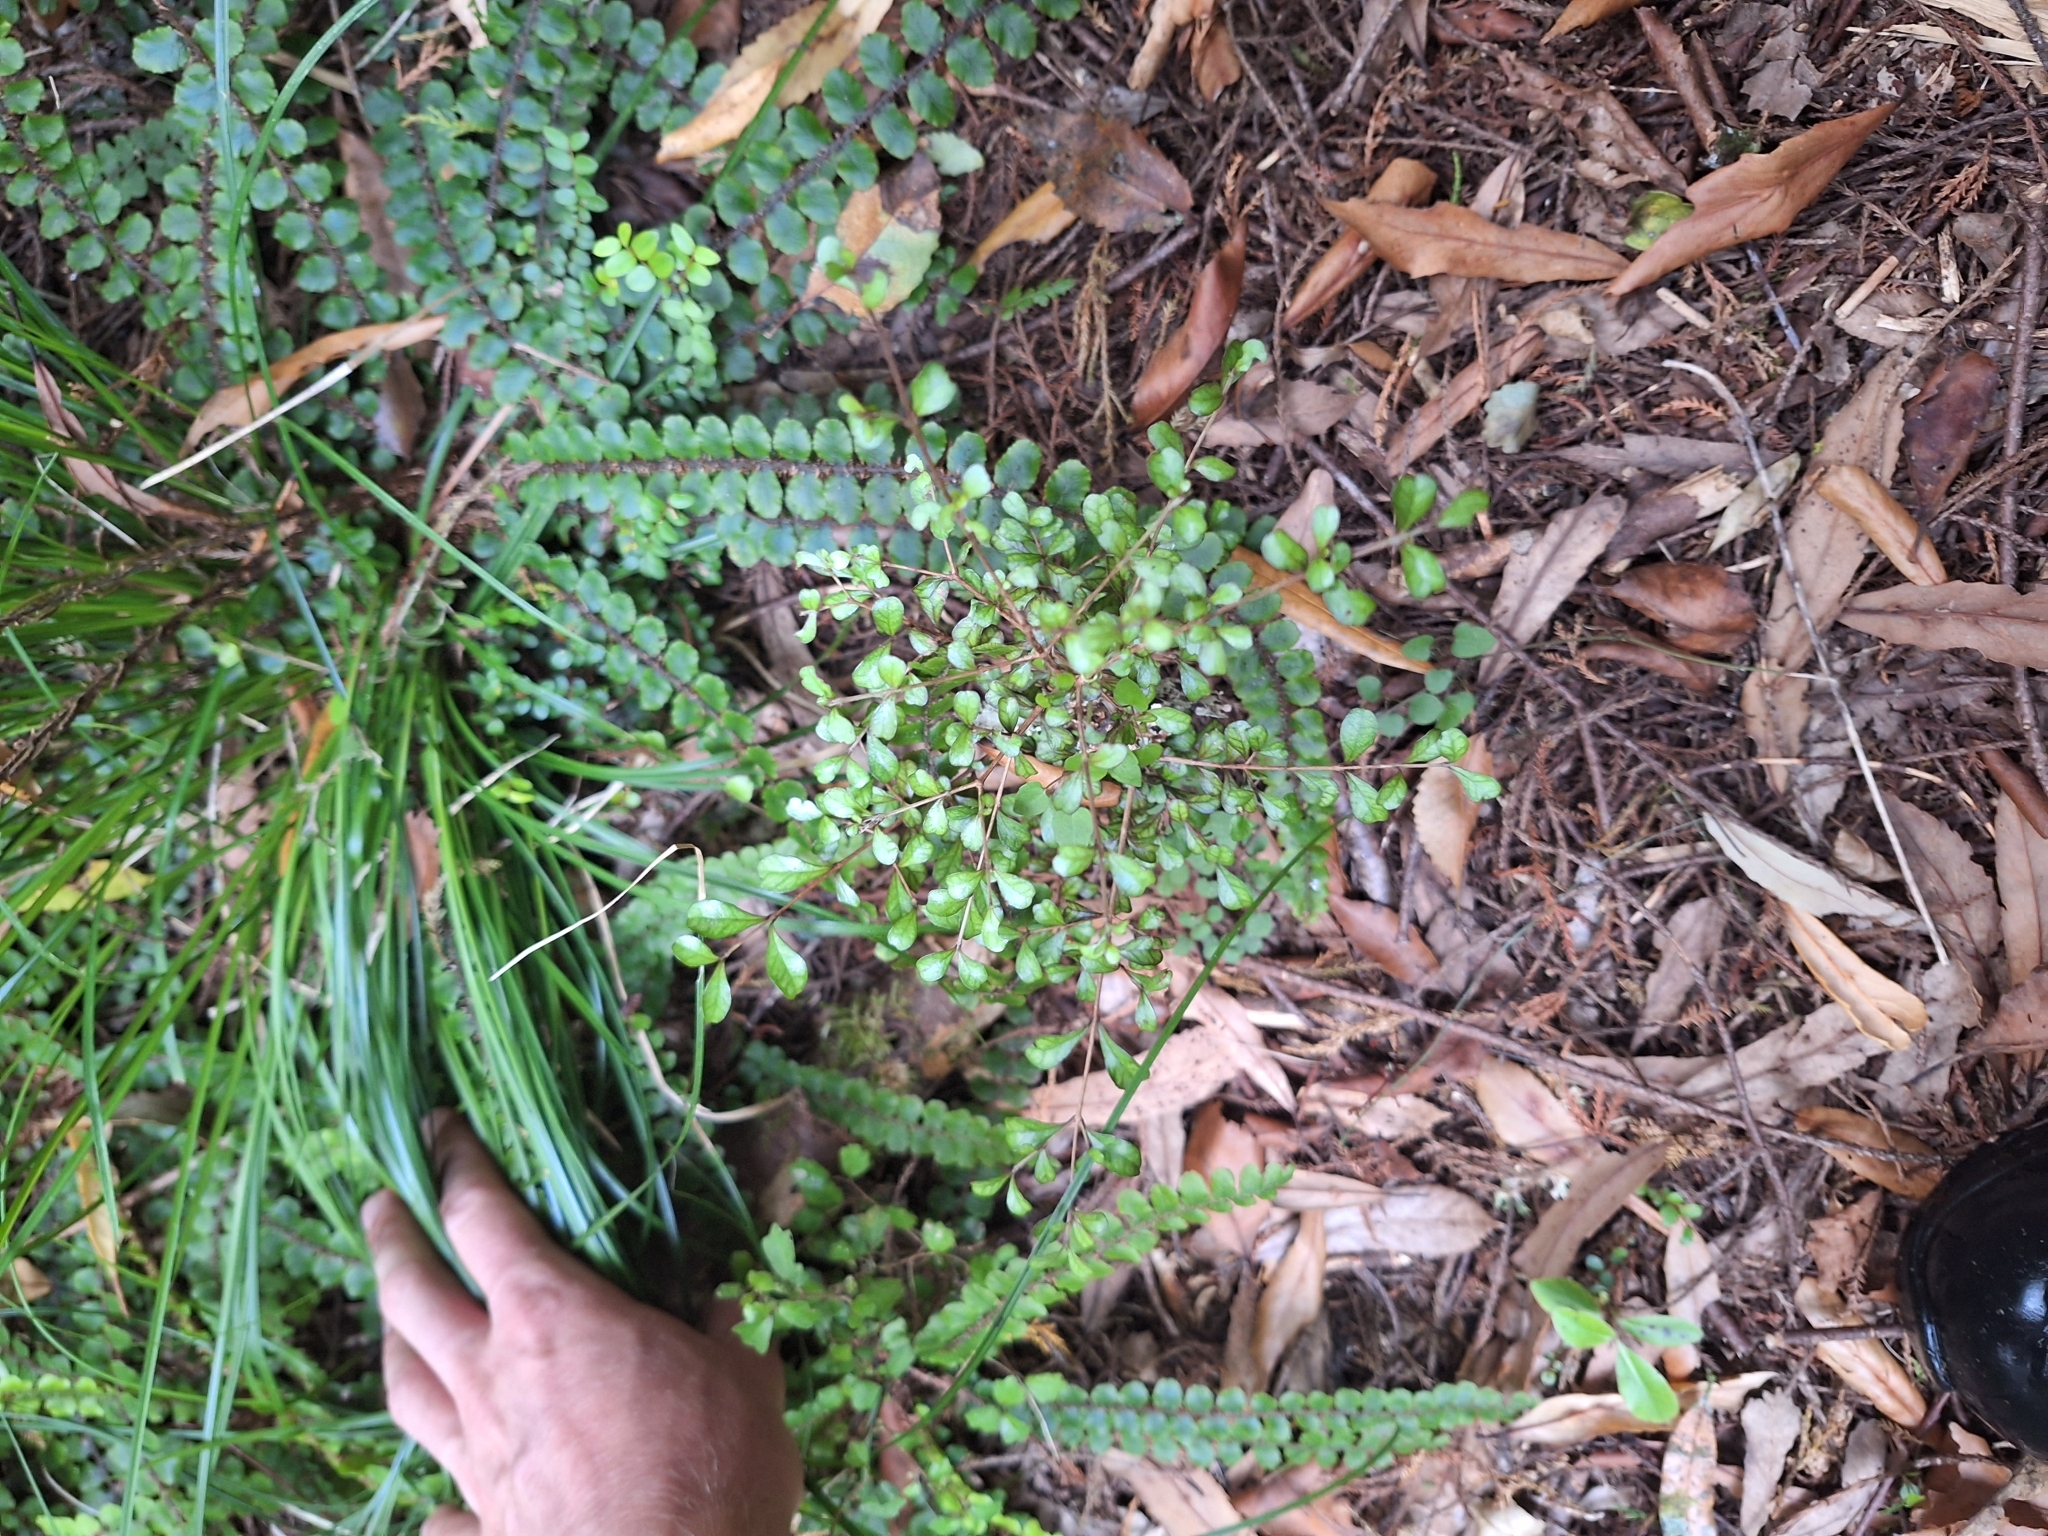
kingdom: Plantae
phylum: Tracheophyta
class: Magnoliopsida
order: Myrtales
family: Myrtaceae
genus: Lophomyrtus
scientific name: Lophomyrtus obcordata
